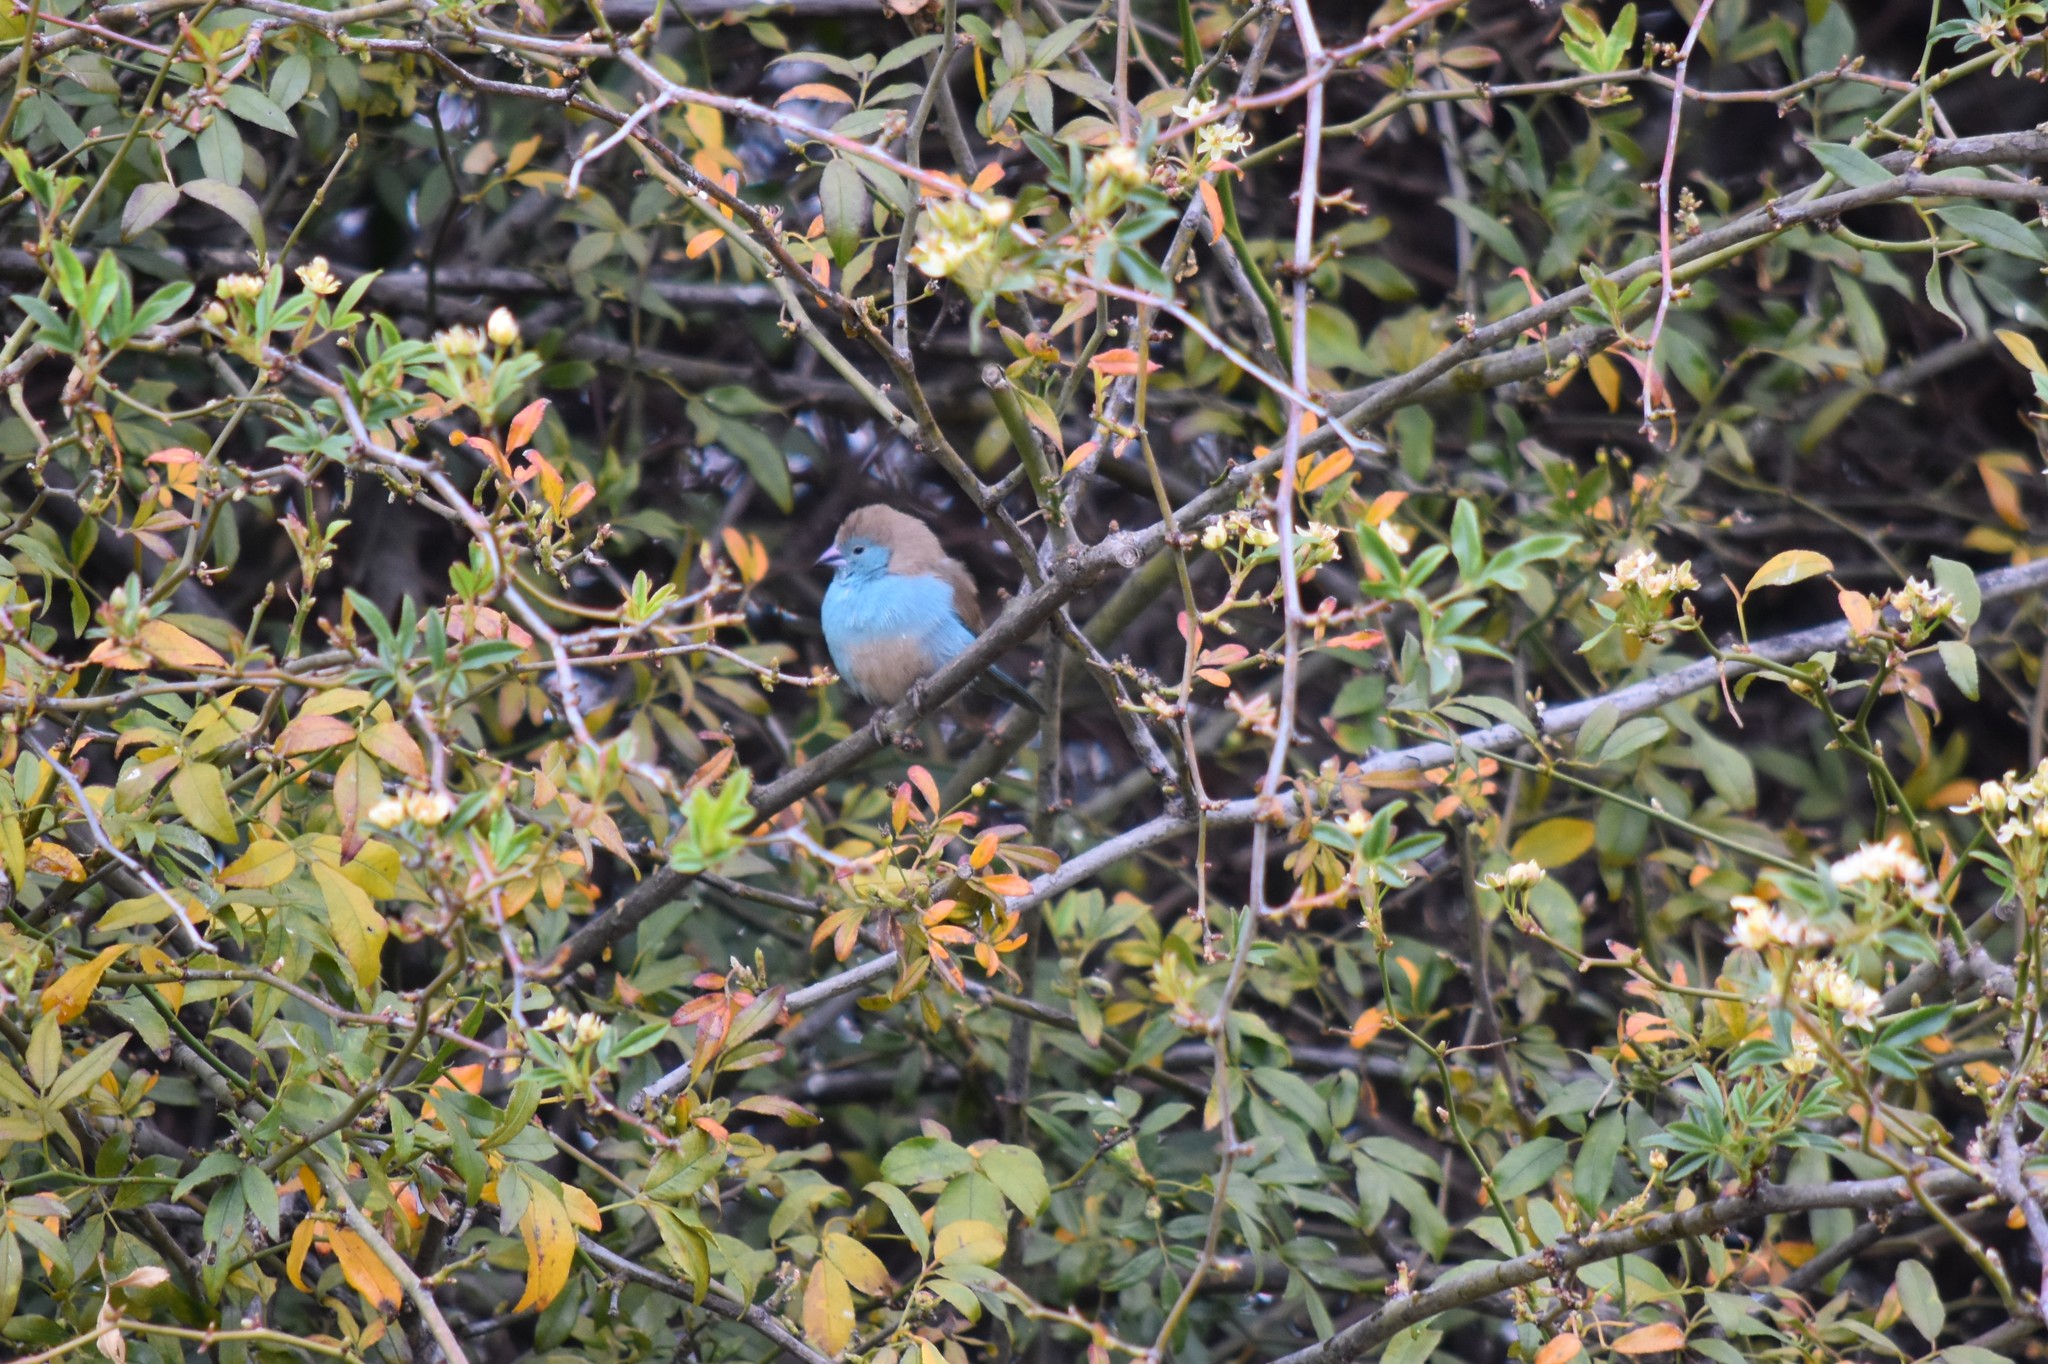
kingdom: Animalia
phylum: Chordata
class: Aves
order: Passeriformes
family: Estrildidae
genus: Uraeginthus
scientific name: Uraeginthus angolensis
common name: Blue waxbill
